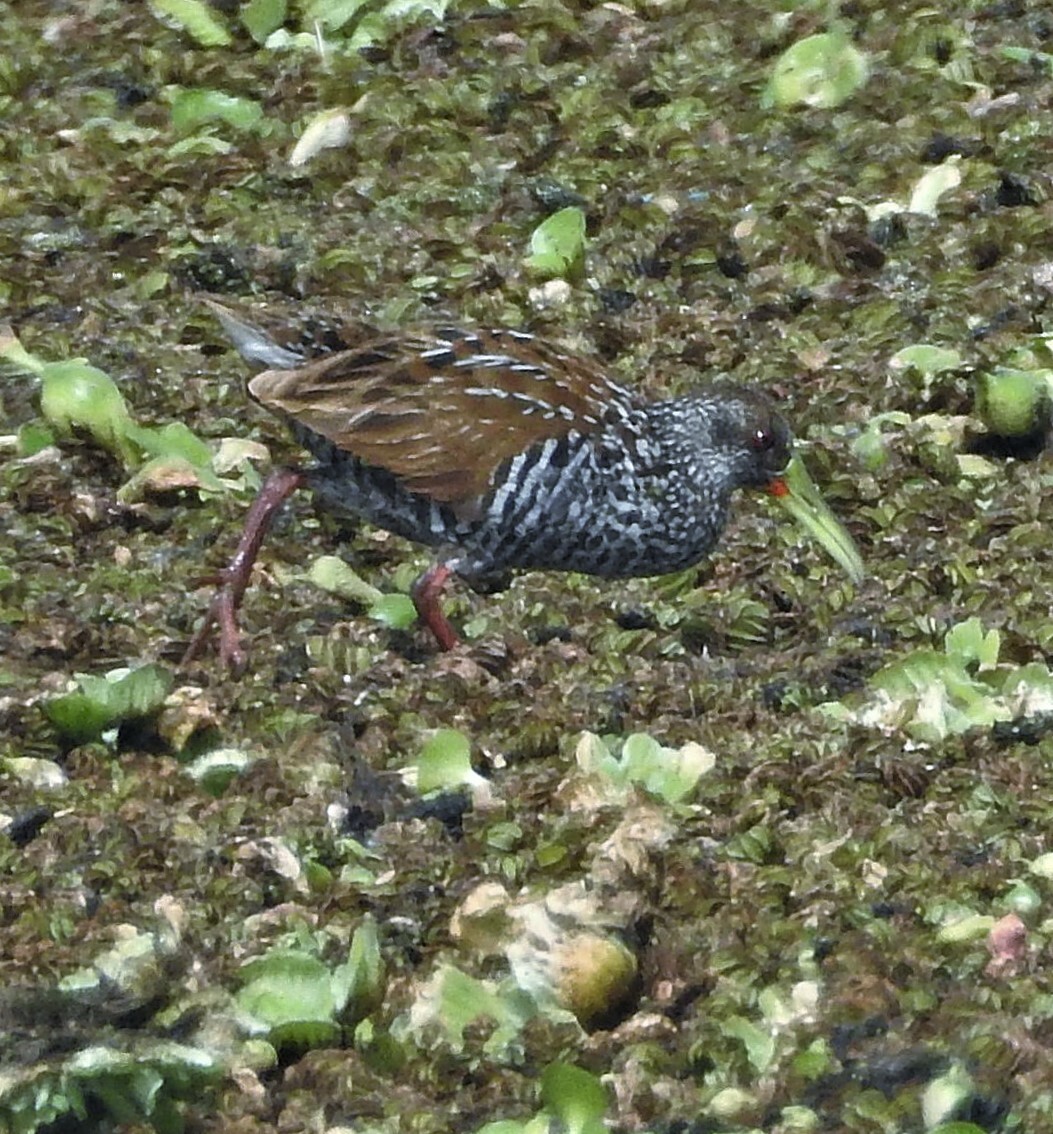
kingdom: Animalia
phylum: Chordata
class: Aves
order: Gruiformes
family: Rallidae
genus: Pardirallus
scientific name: Pardirallus maculatus
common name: Spotted rail
